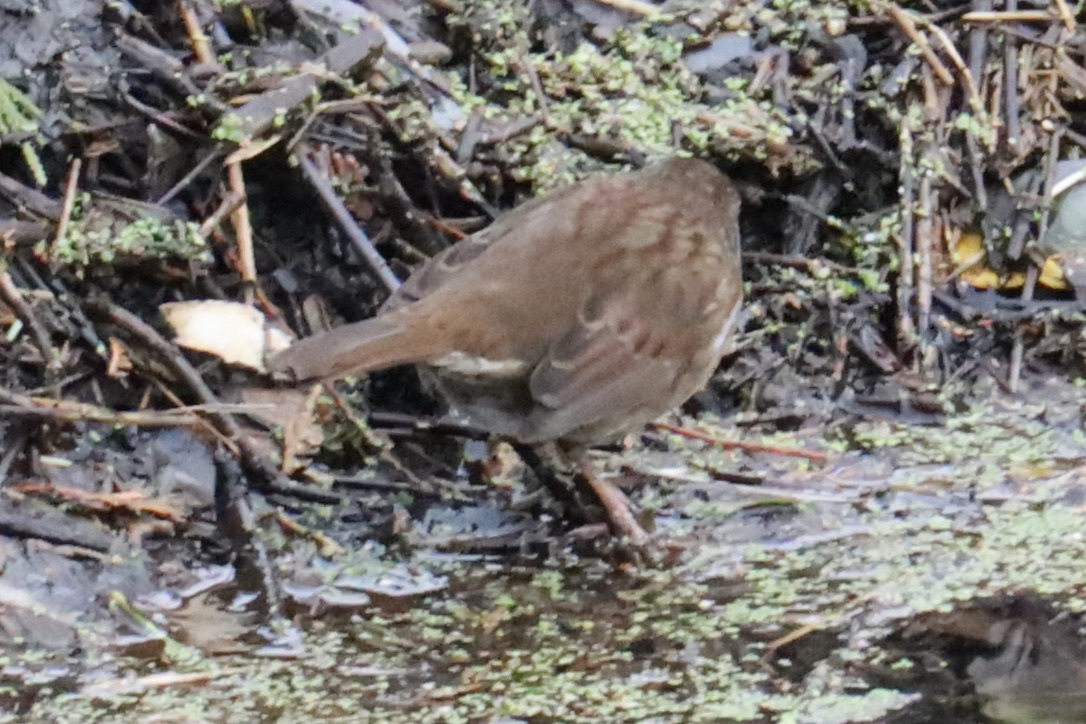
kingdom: Animalia
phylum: Chordata
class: Aves
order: Passeriformes
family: Passerellidae
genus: Melospiza
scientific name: Melospiza melodia
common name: Song sparrow
